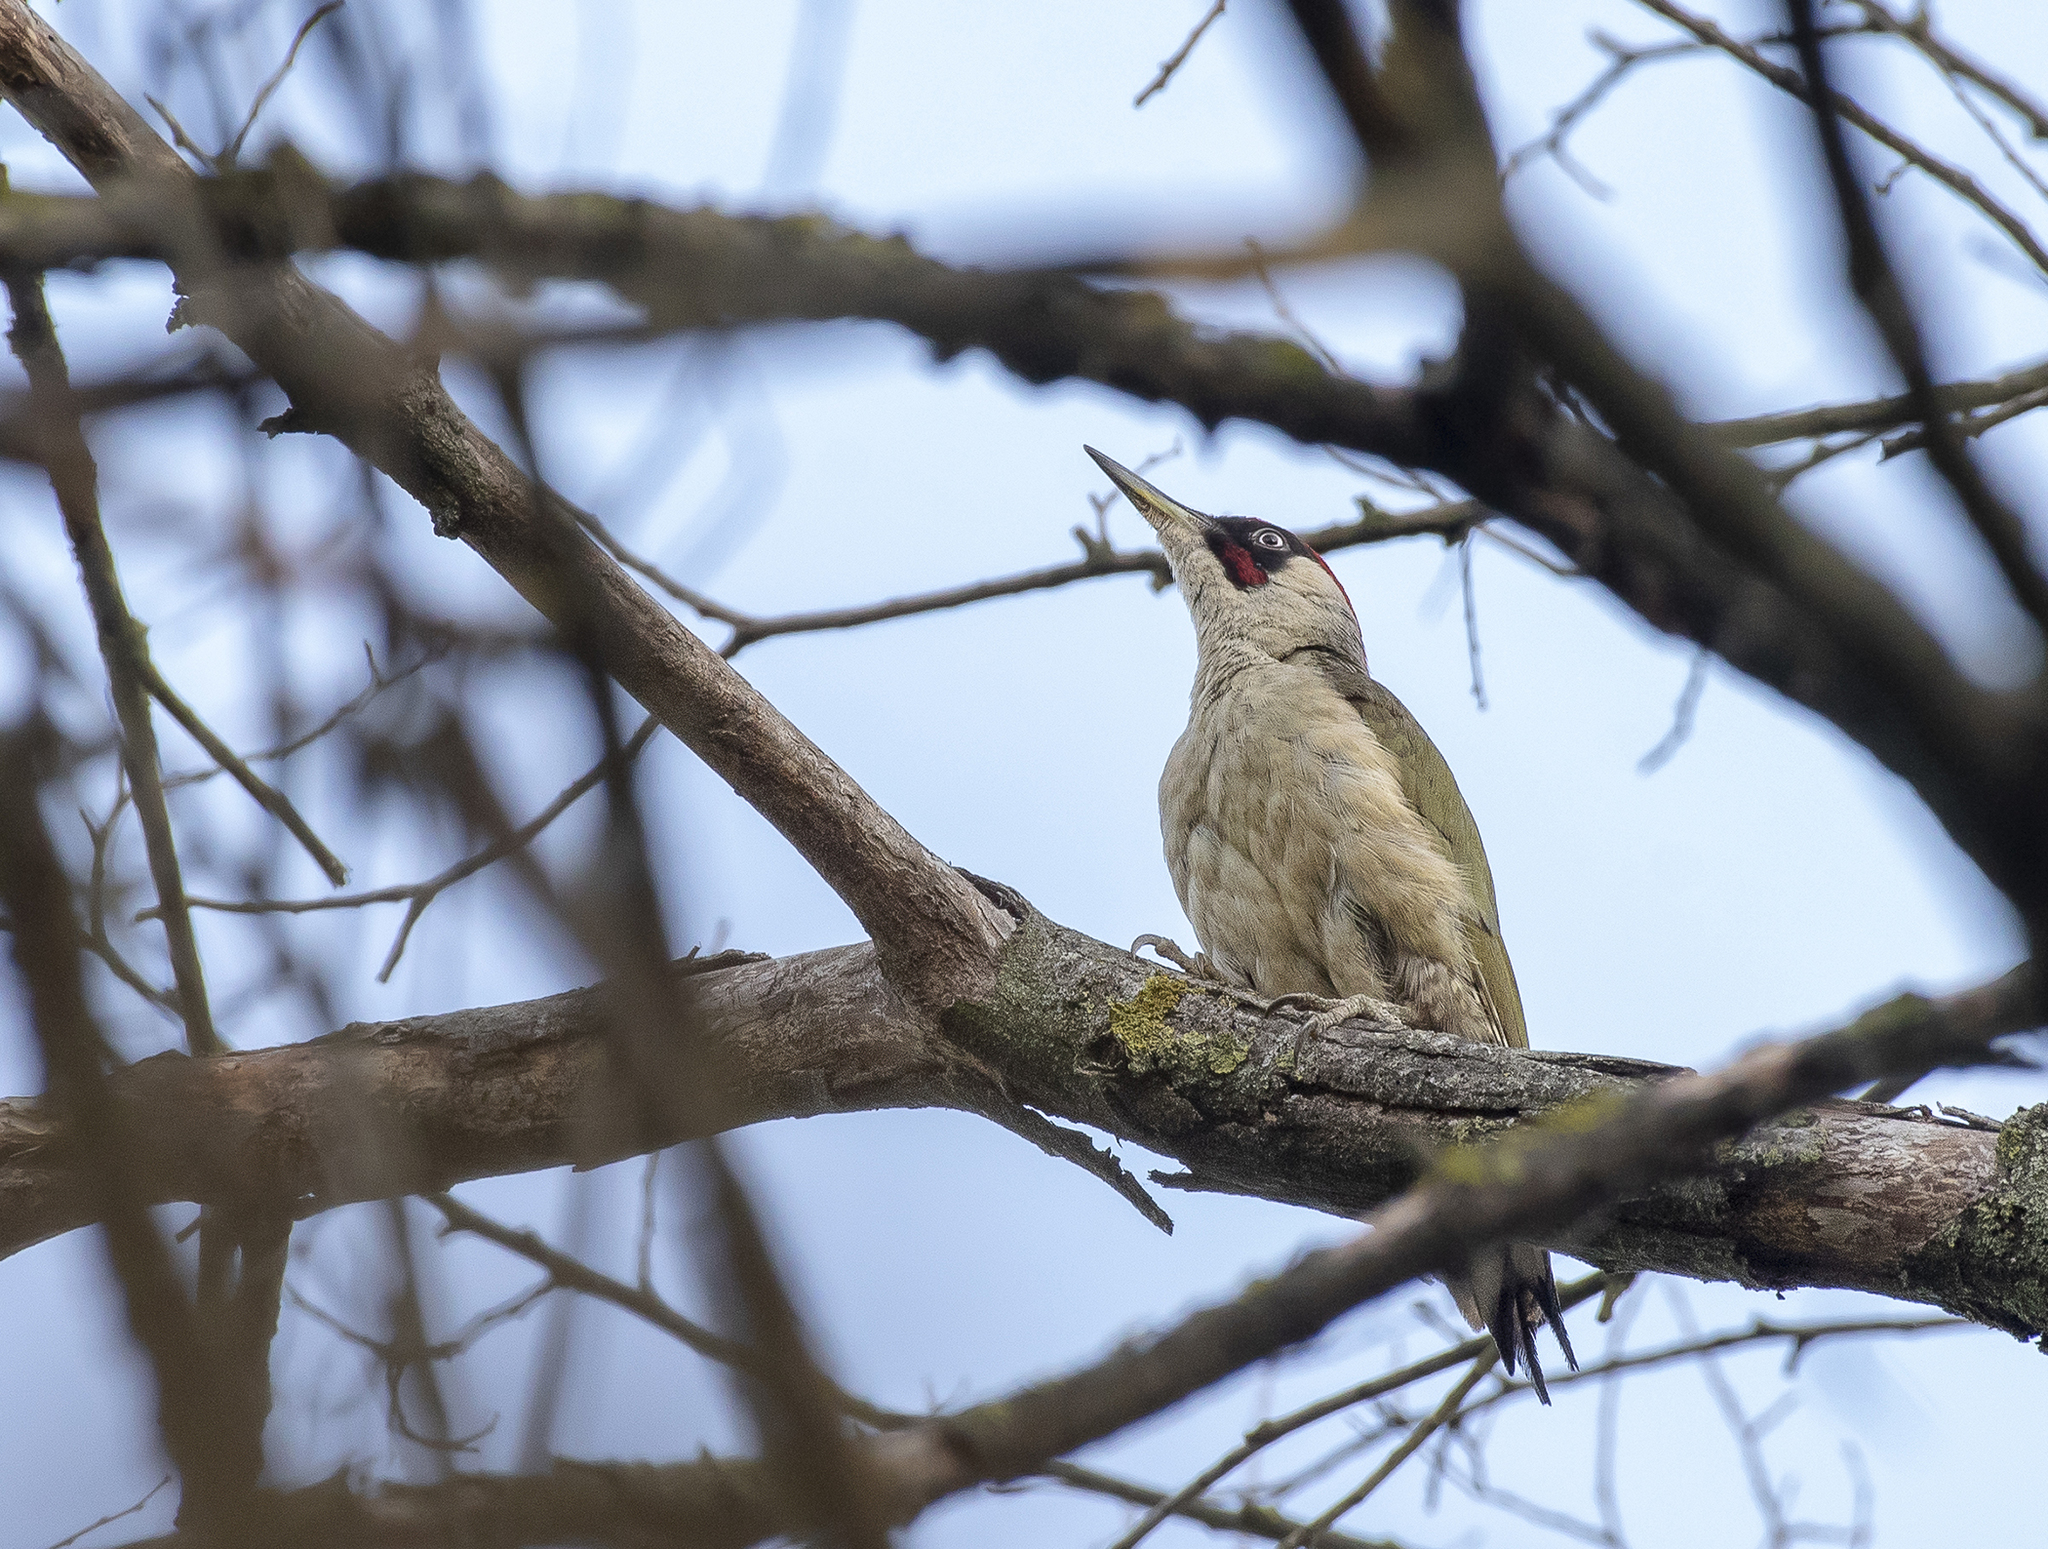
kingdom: Animalia
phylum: Chordata
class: Aves
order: Piciformes
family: Picidae
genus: Picus
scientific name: Picus viridis
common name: European green woodpecker
